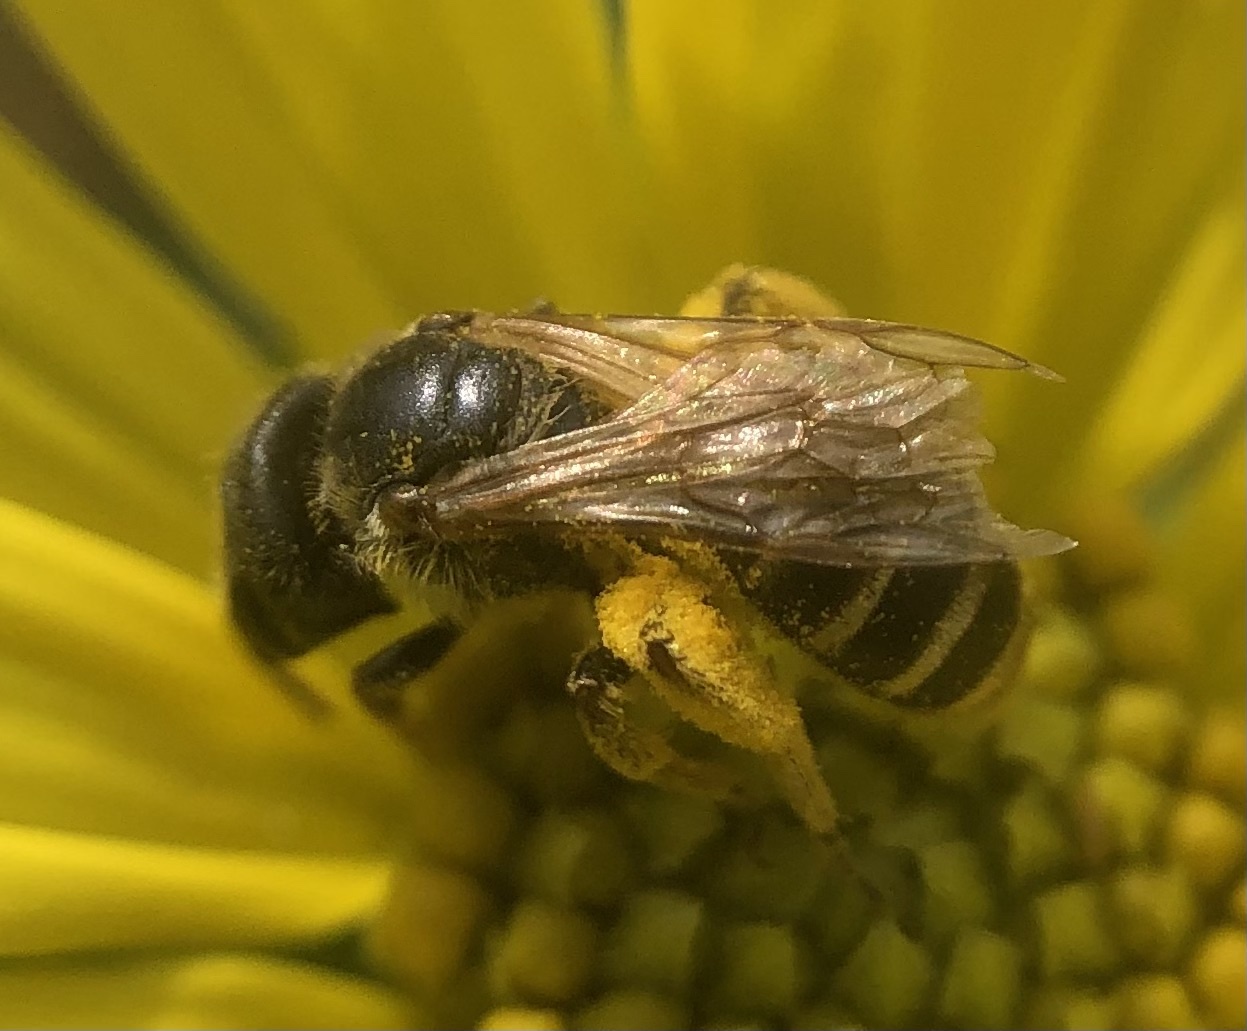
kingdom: Animalia
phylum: Arthropoda
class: Insecta
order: Hymenoptera
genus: Odontalictus
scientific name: Odontalictus
